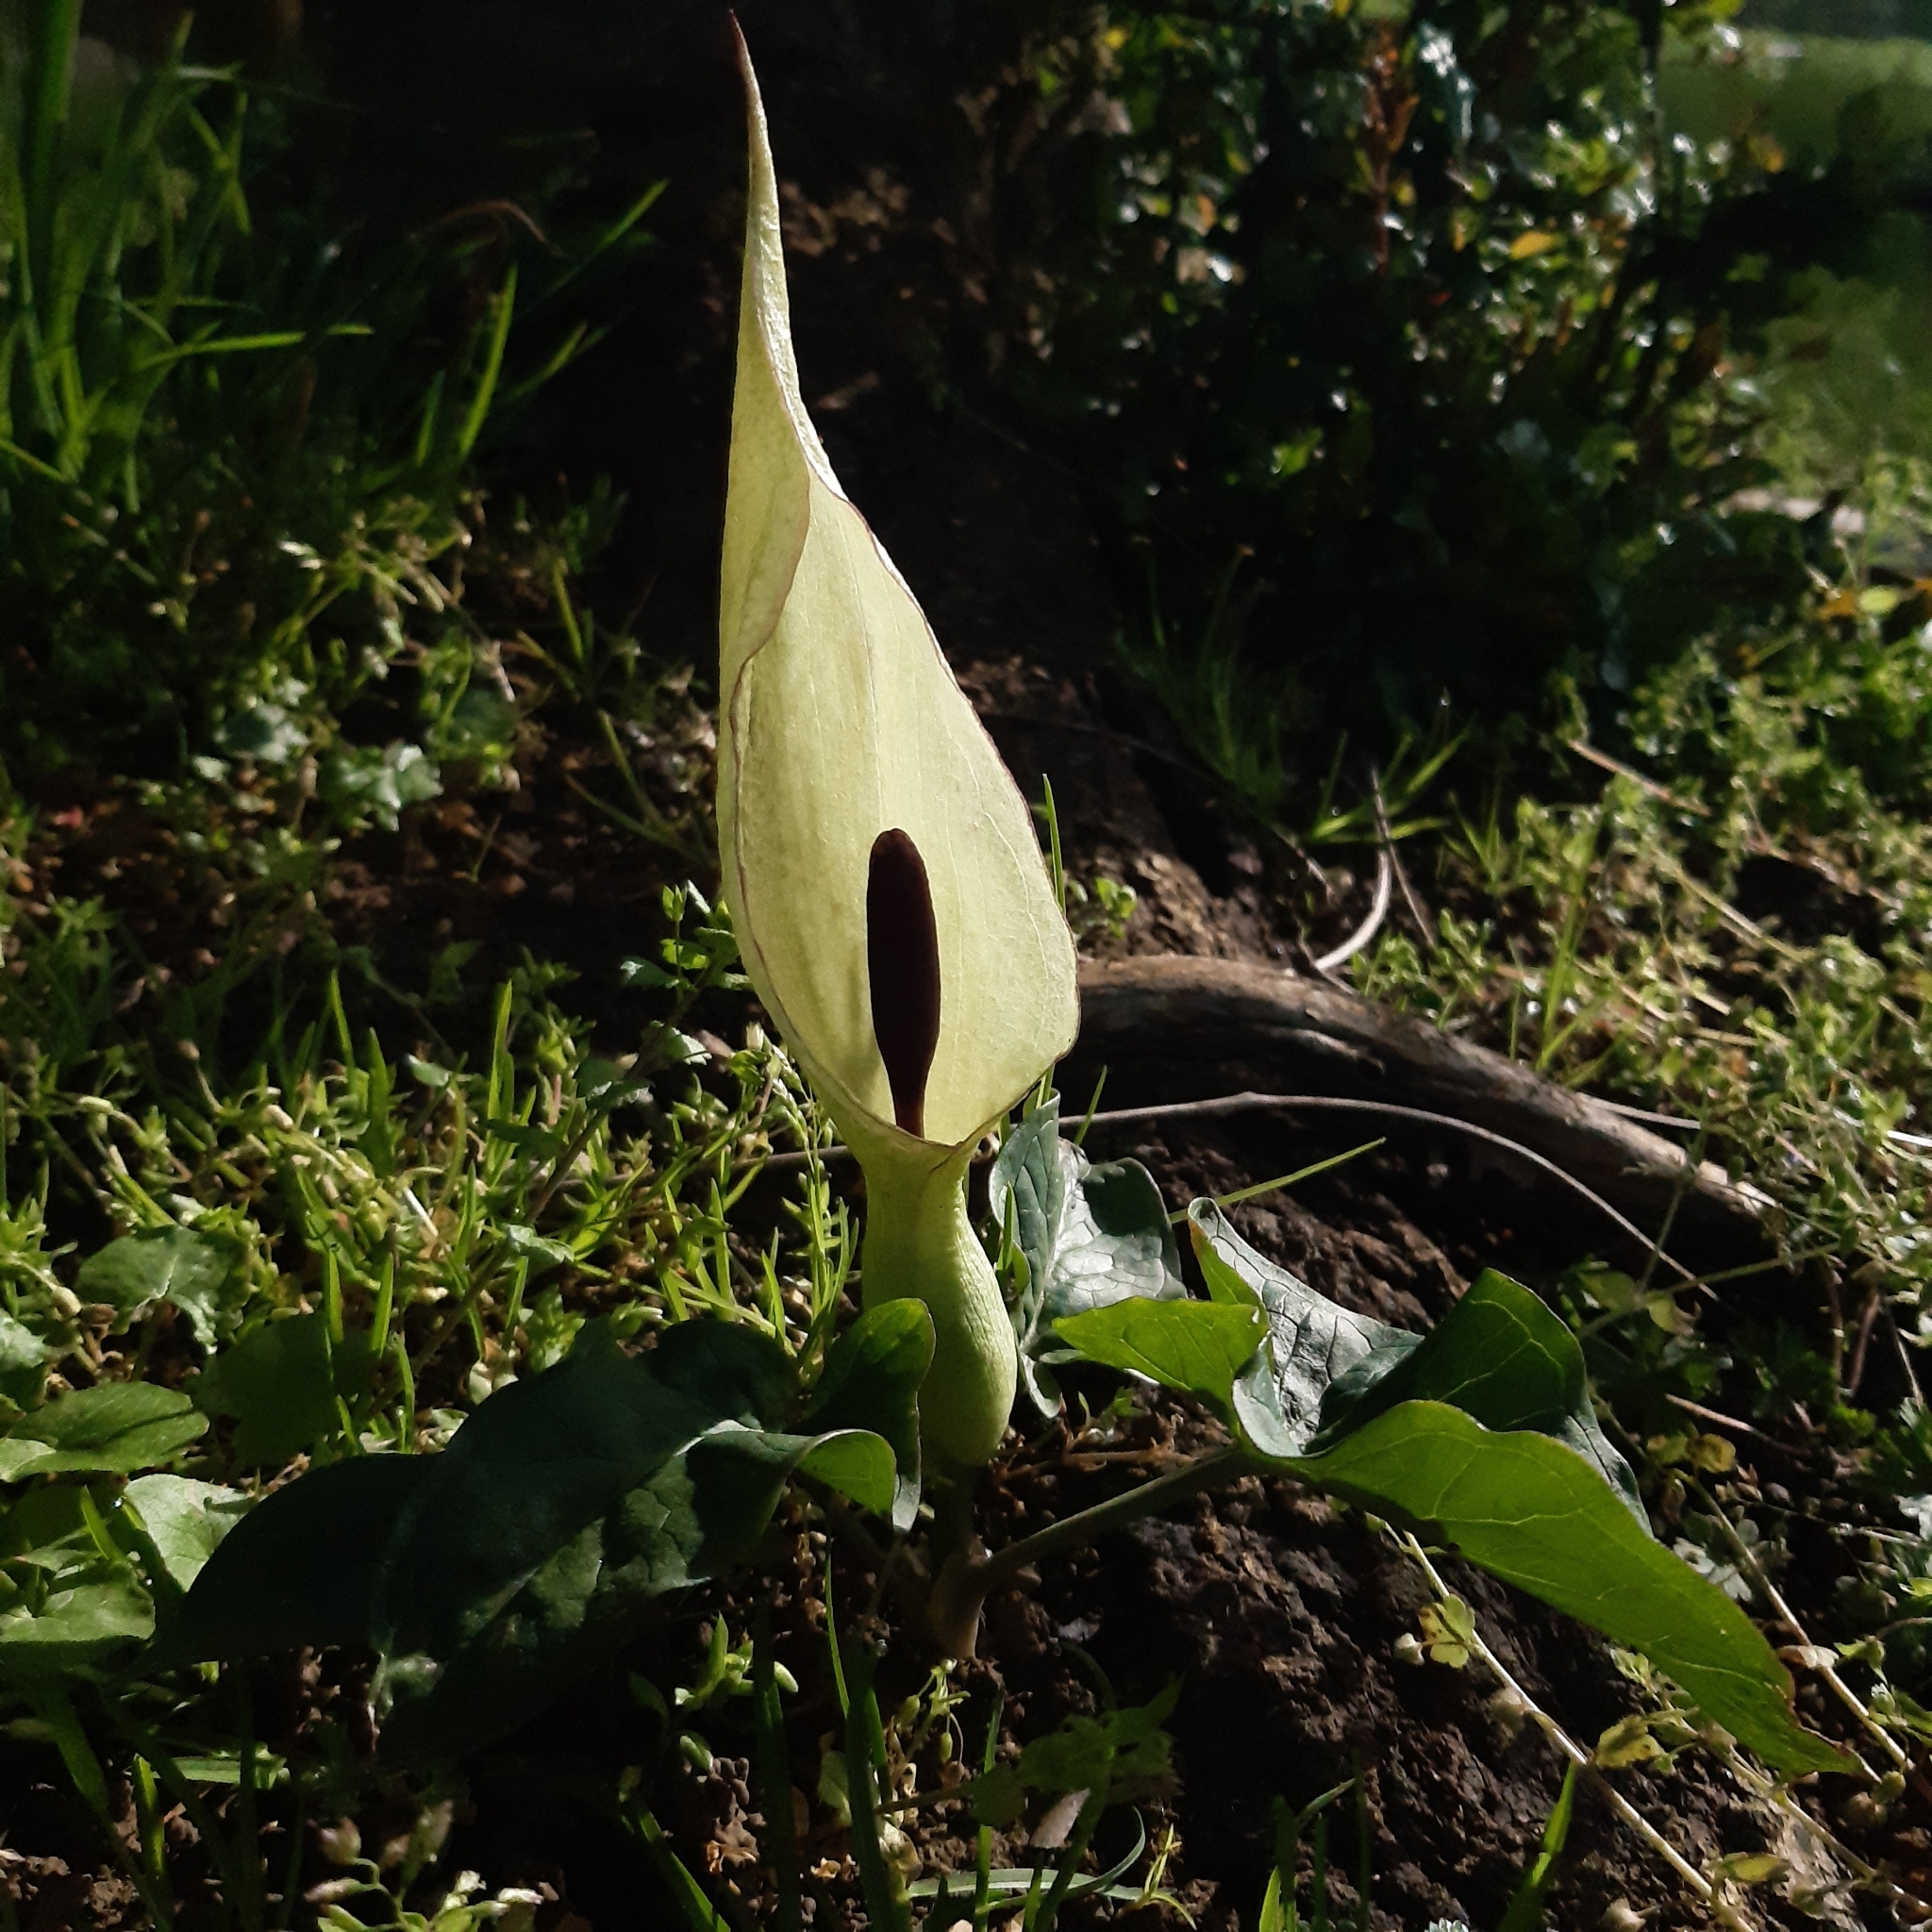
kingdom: Plantae
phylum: Tracheophyta
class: Liliopsida
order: Alismatales
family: Araceae
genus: Arum
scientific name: Arum maculatum
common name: Lords-and-ladies
